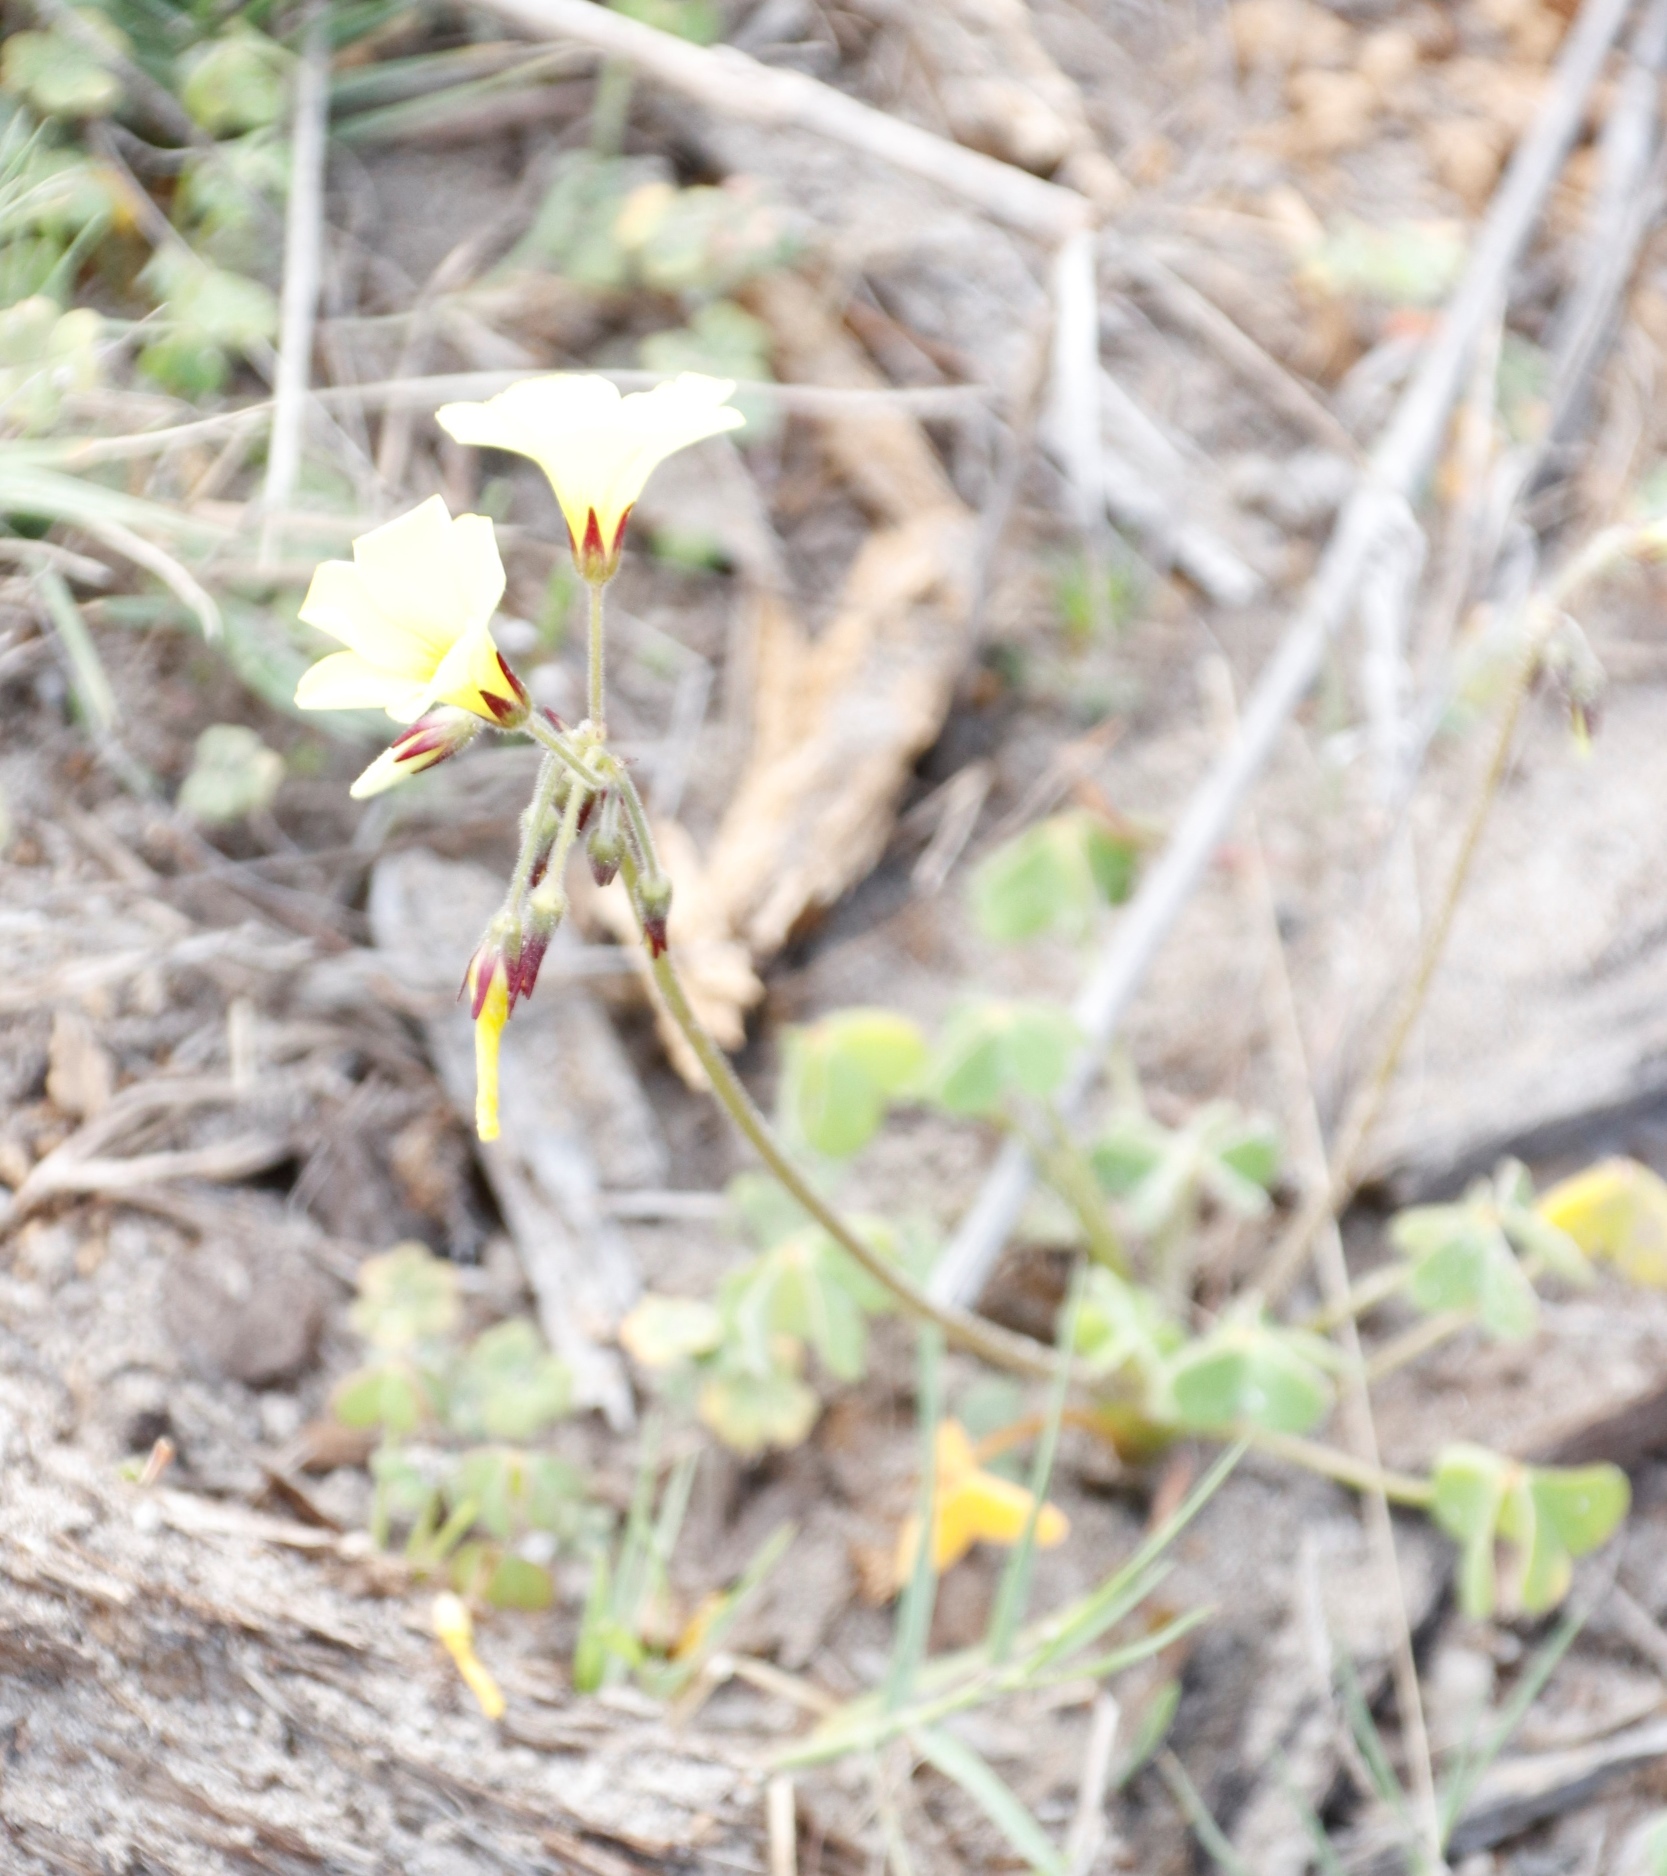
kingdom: Plantae
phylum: Tracheophyta
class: Magnoliopsida
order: Oxalidales
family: Oxalidaceae
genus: Oxalis
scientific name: Oxalis pes-caprae
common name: Bermuda-buttercup
